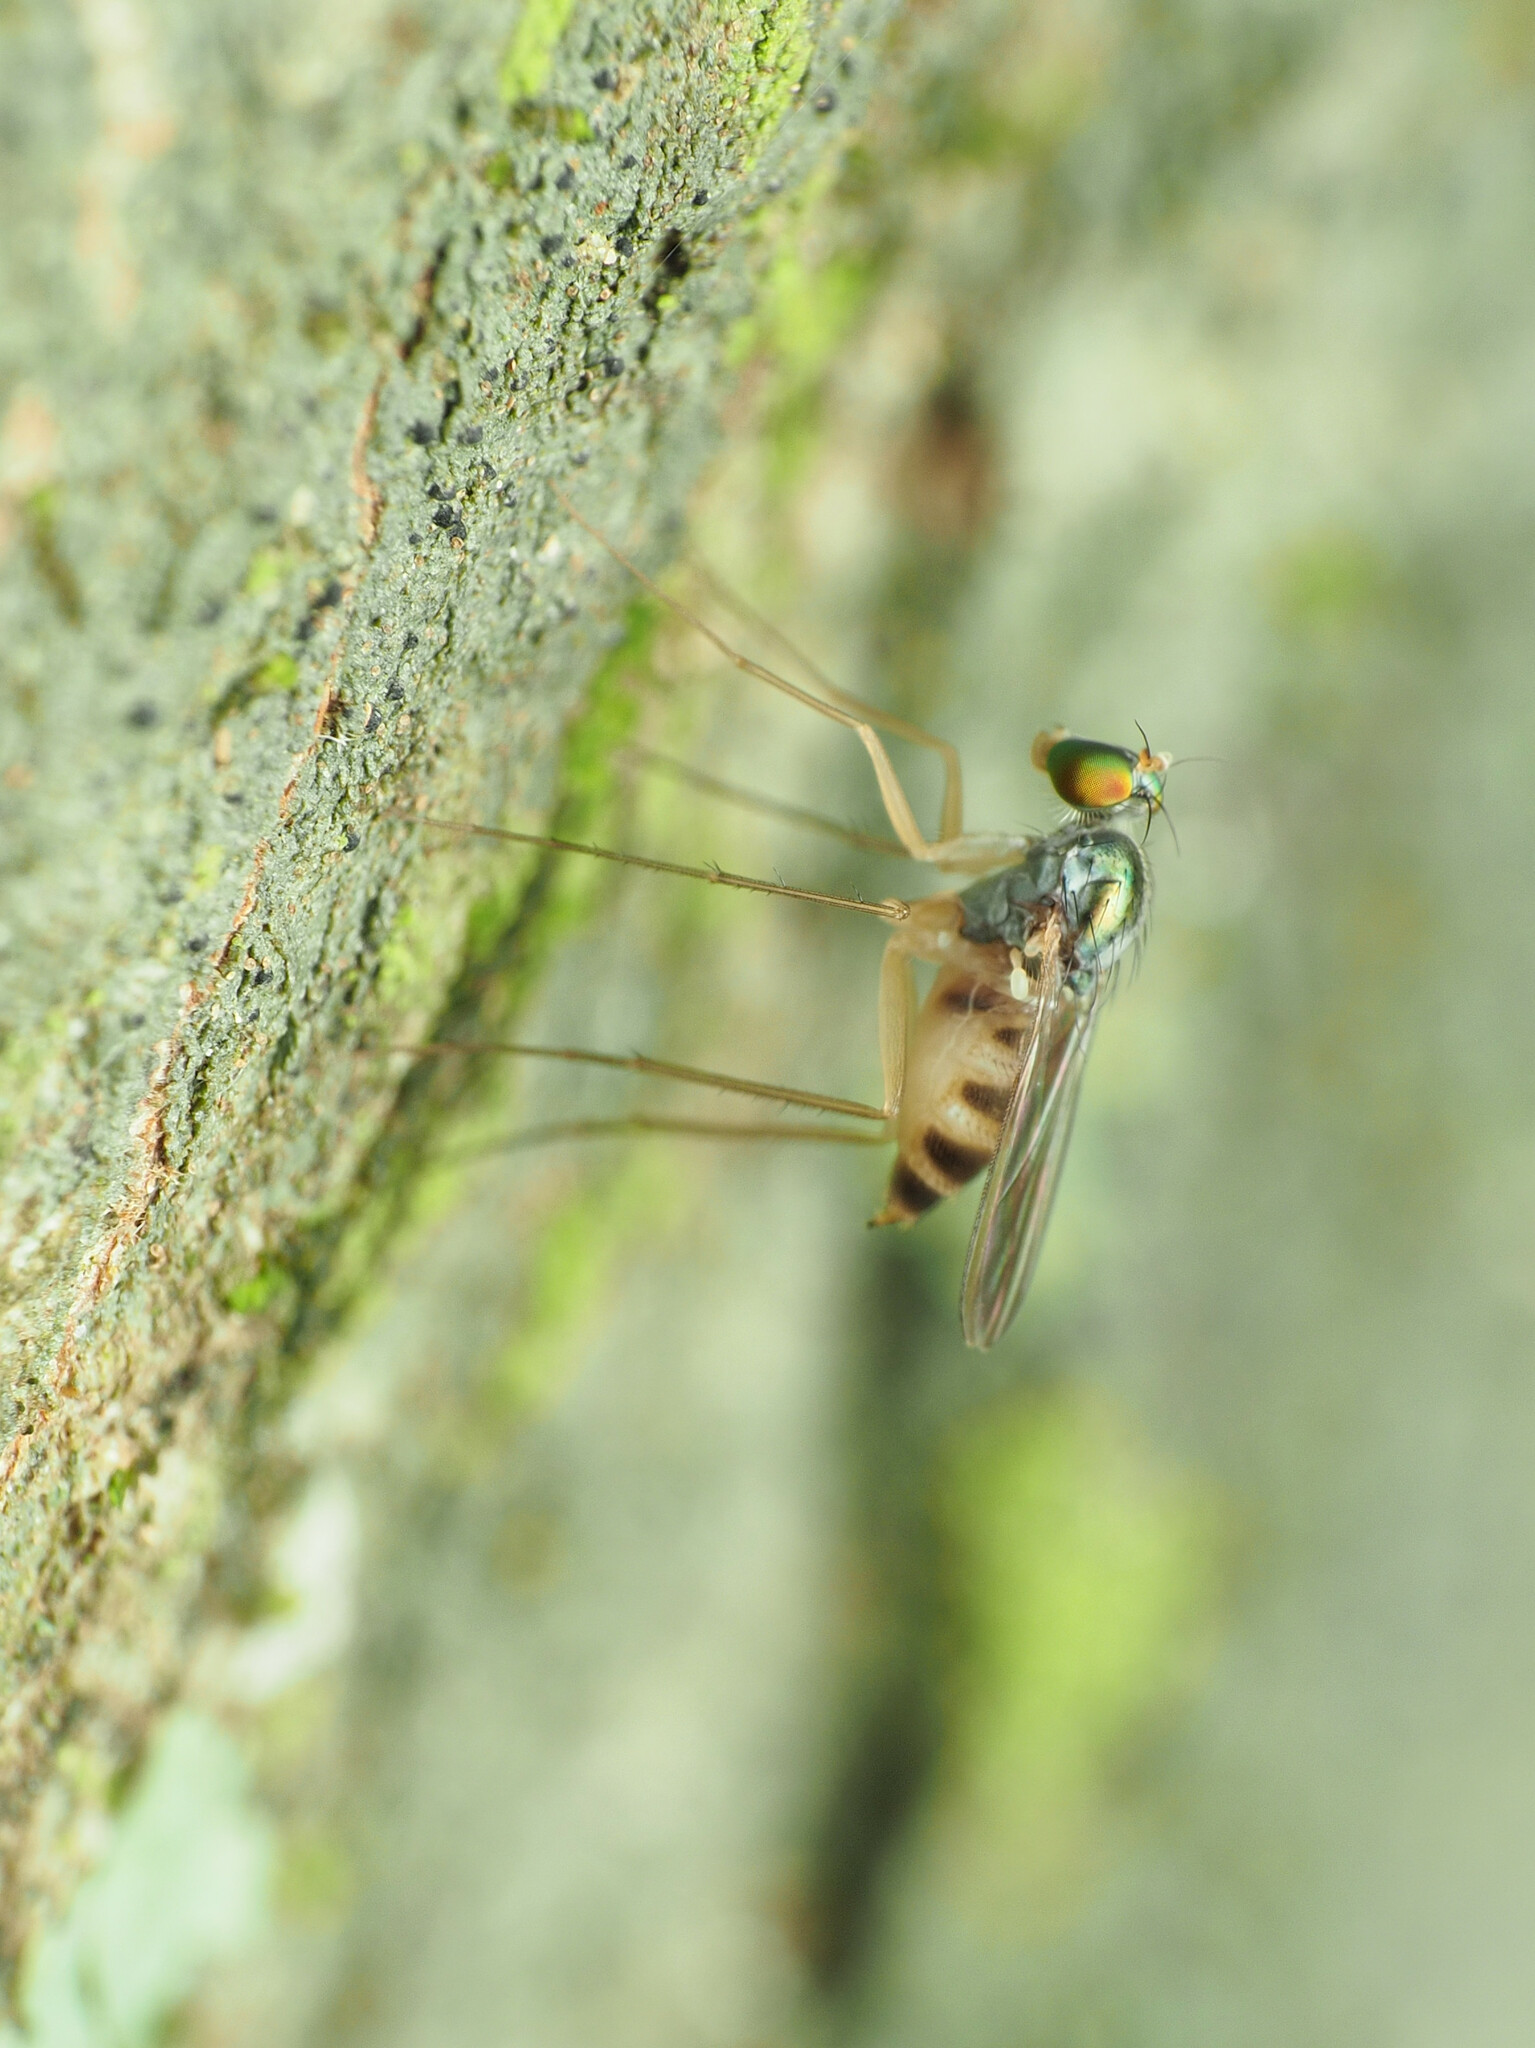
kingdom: Animalia
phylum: Arthropoda
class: Insecta
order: Diptera
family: Dolichopodidae
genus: Neurigona
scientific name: Neurigona deformis
